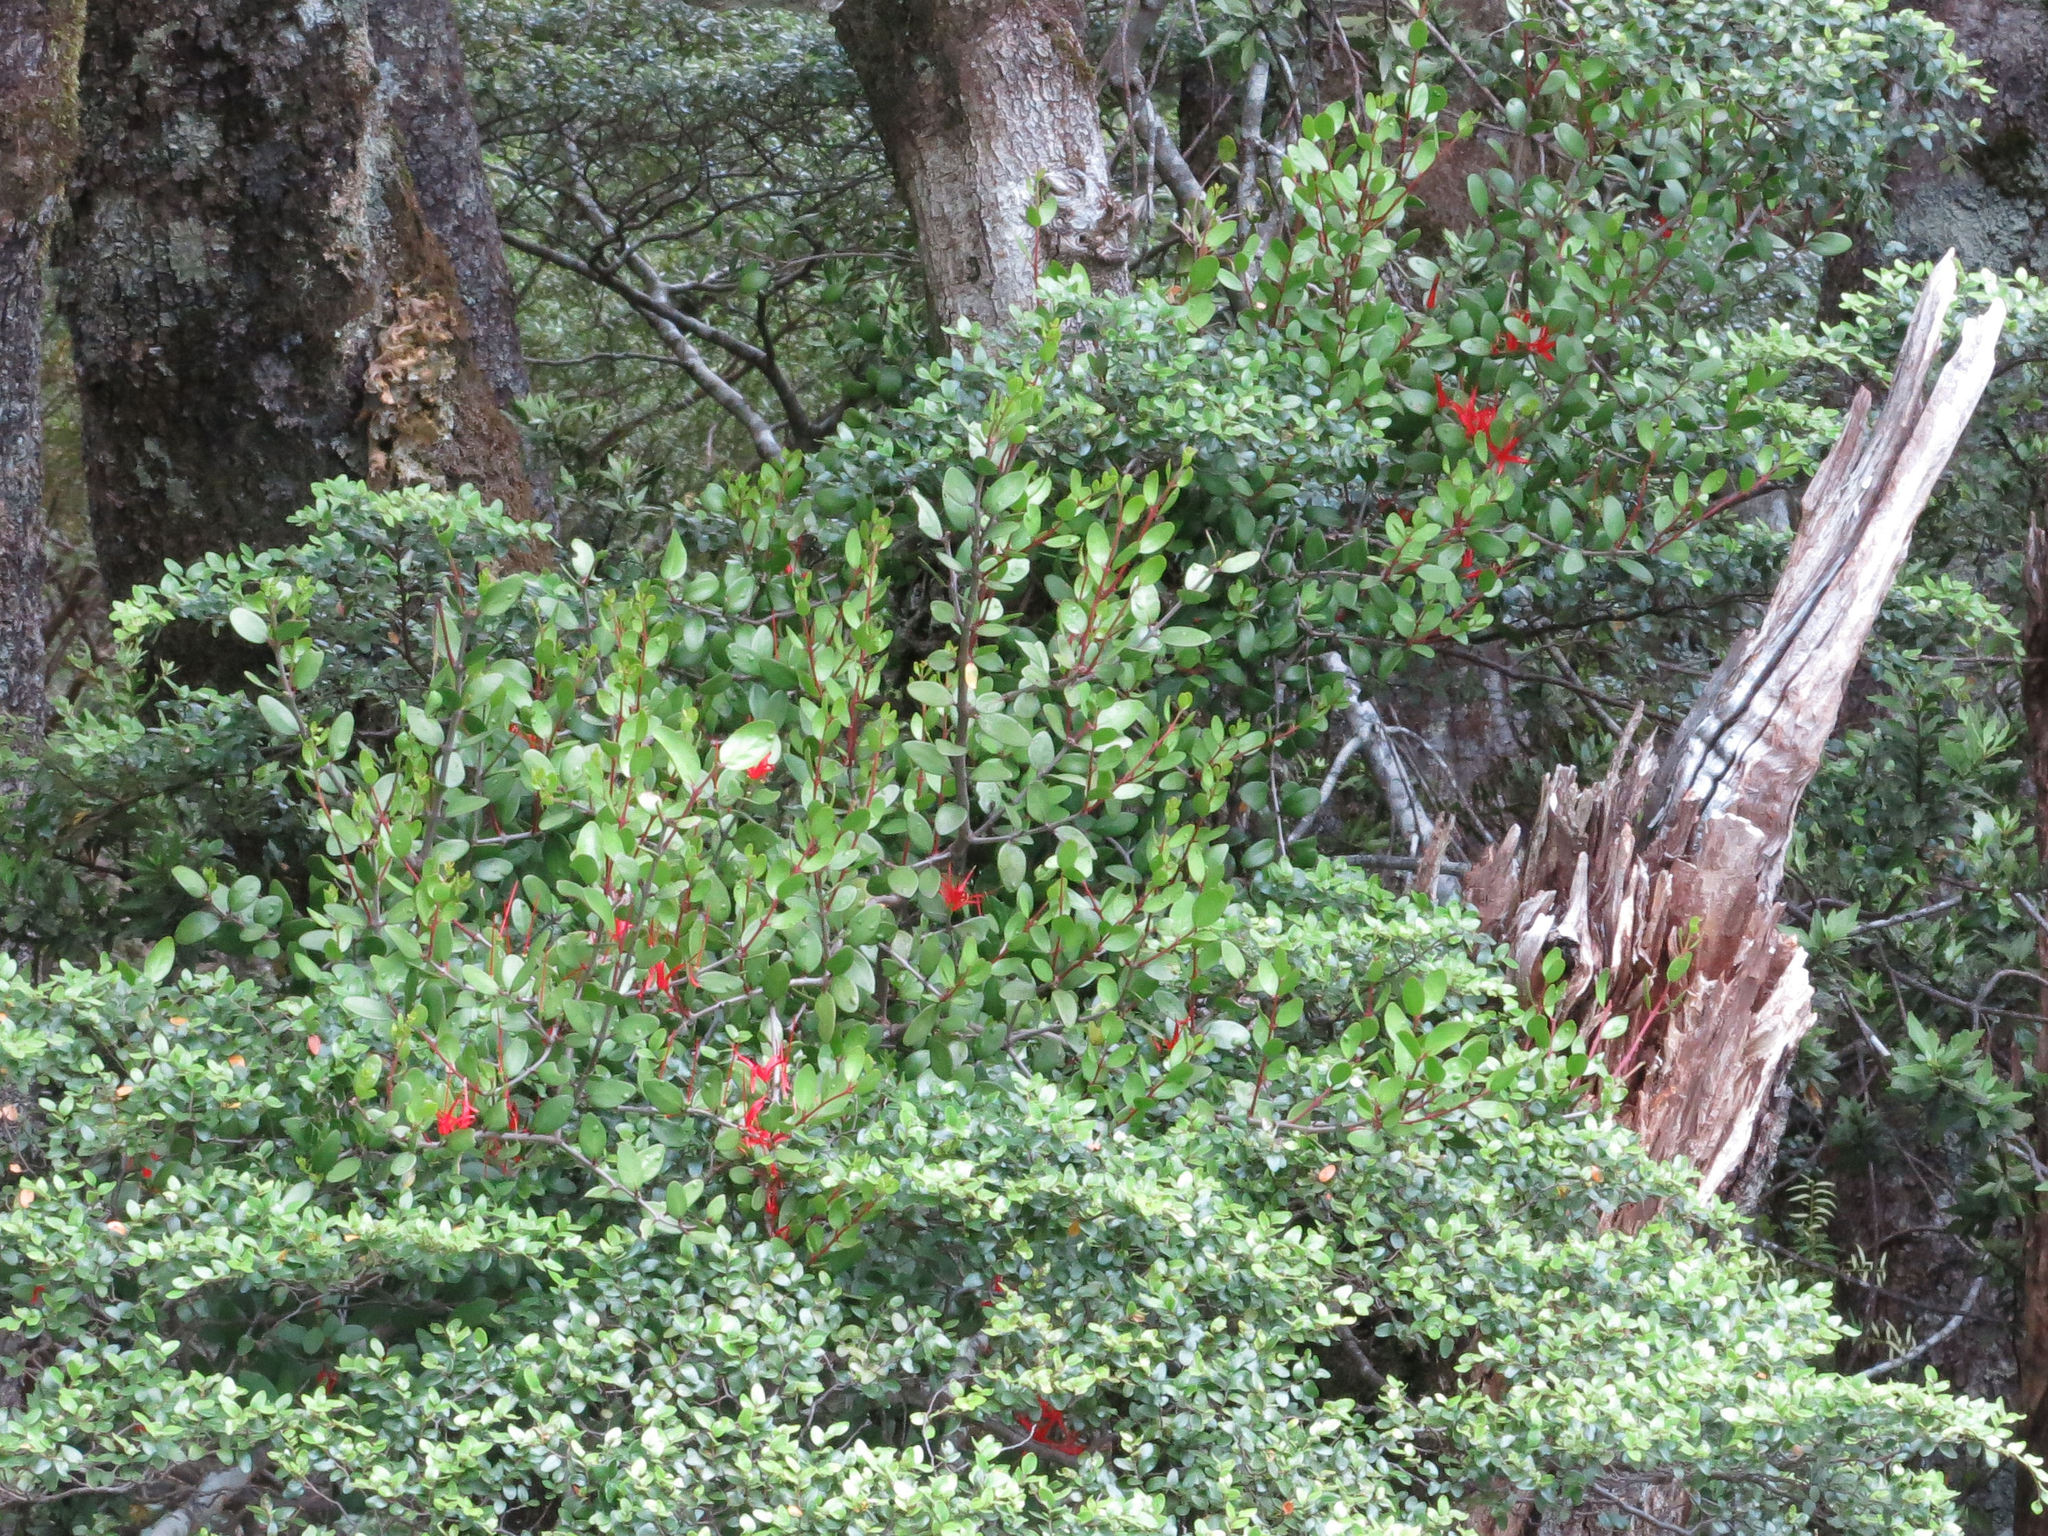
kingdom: Plantae
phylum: Tracheophyta
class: Magnoliopsida
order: Santalales
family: Loranthaceae
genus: Peraxilla
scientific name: Peraxilla tetrapetala
